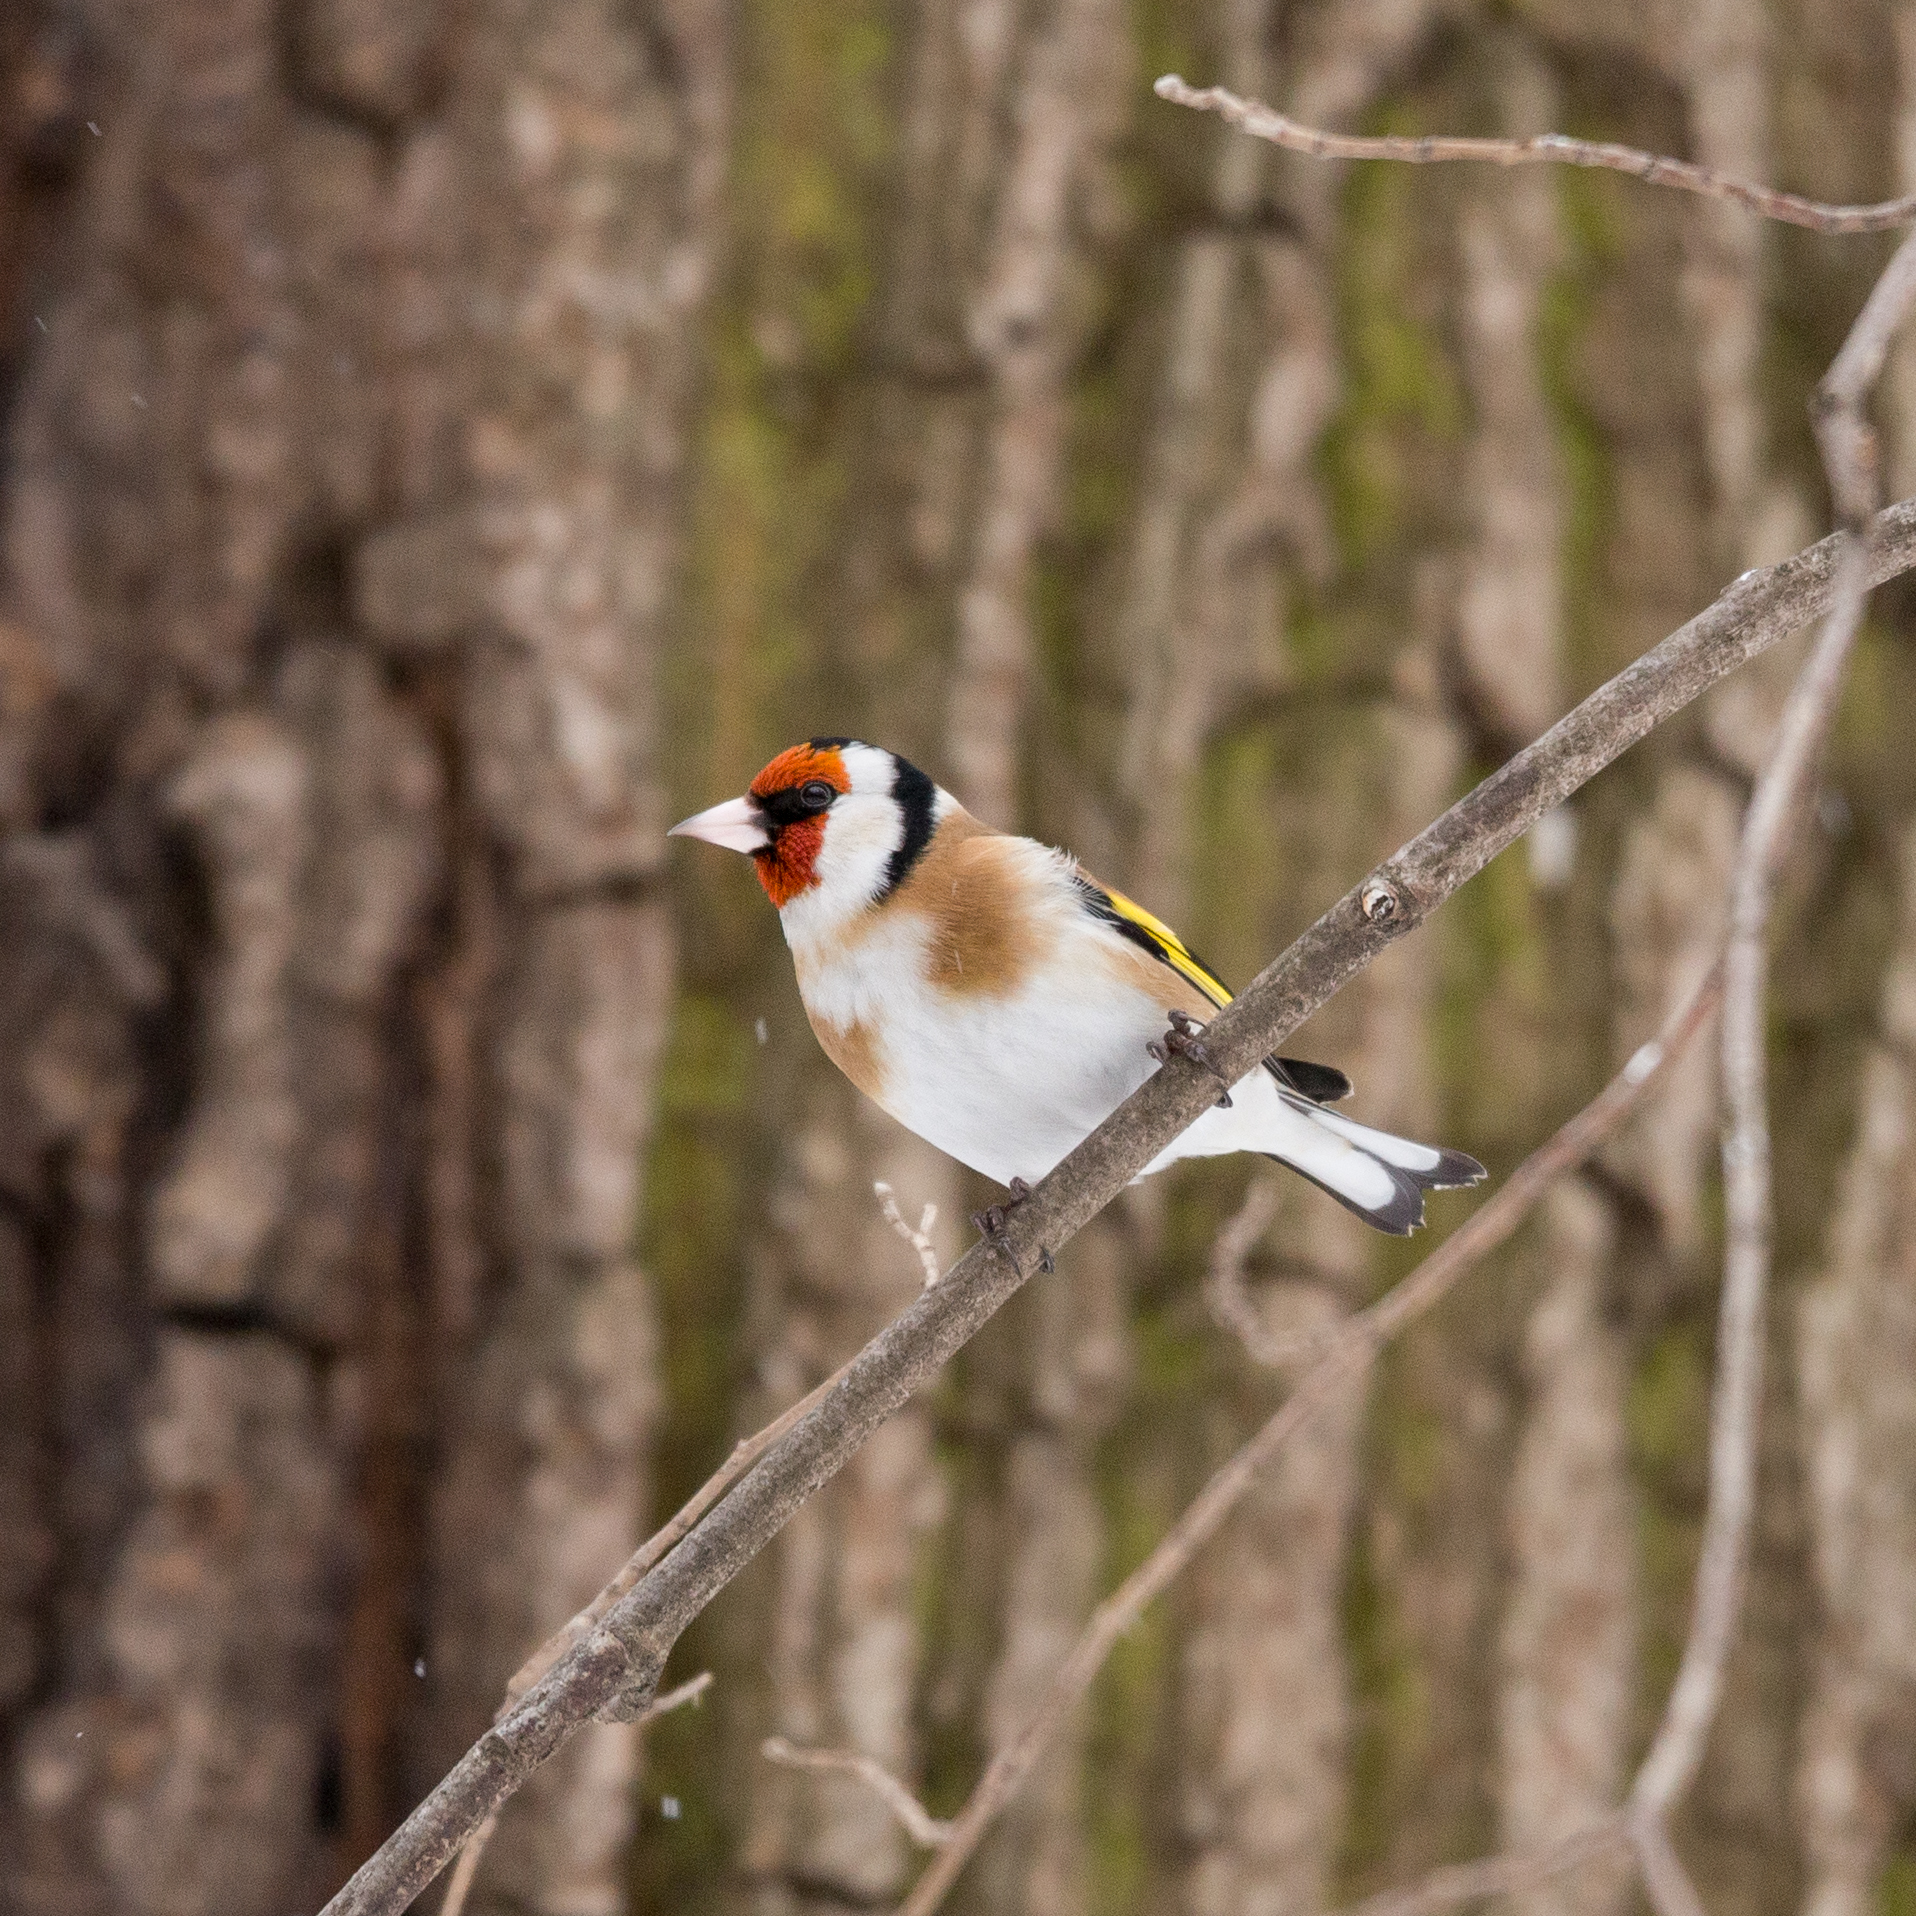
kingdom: Animalia
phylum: Chordata
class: Aves
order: Passeriformes
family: Fringillidae
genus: Carduelis
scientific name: Carduelis carduelis
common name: European goldfinch
